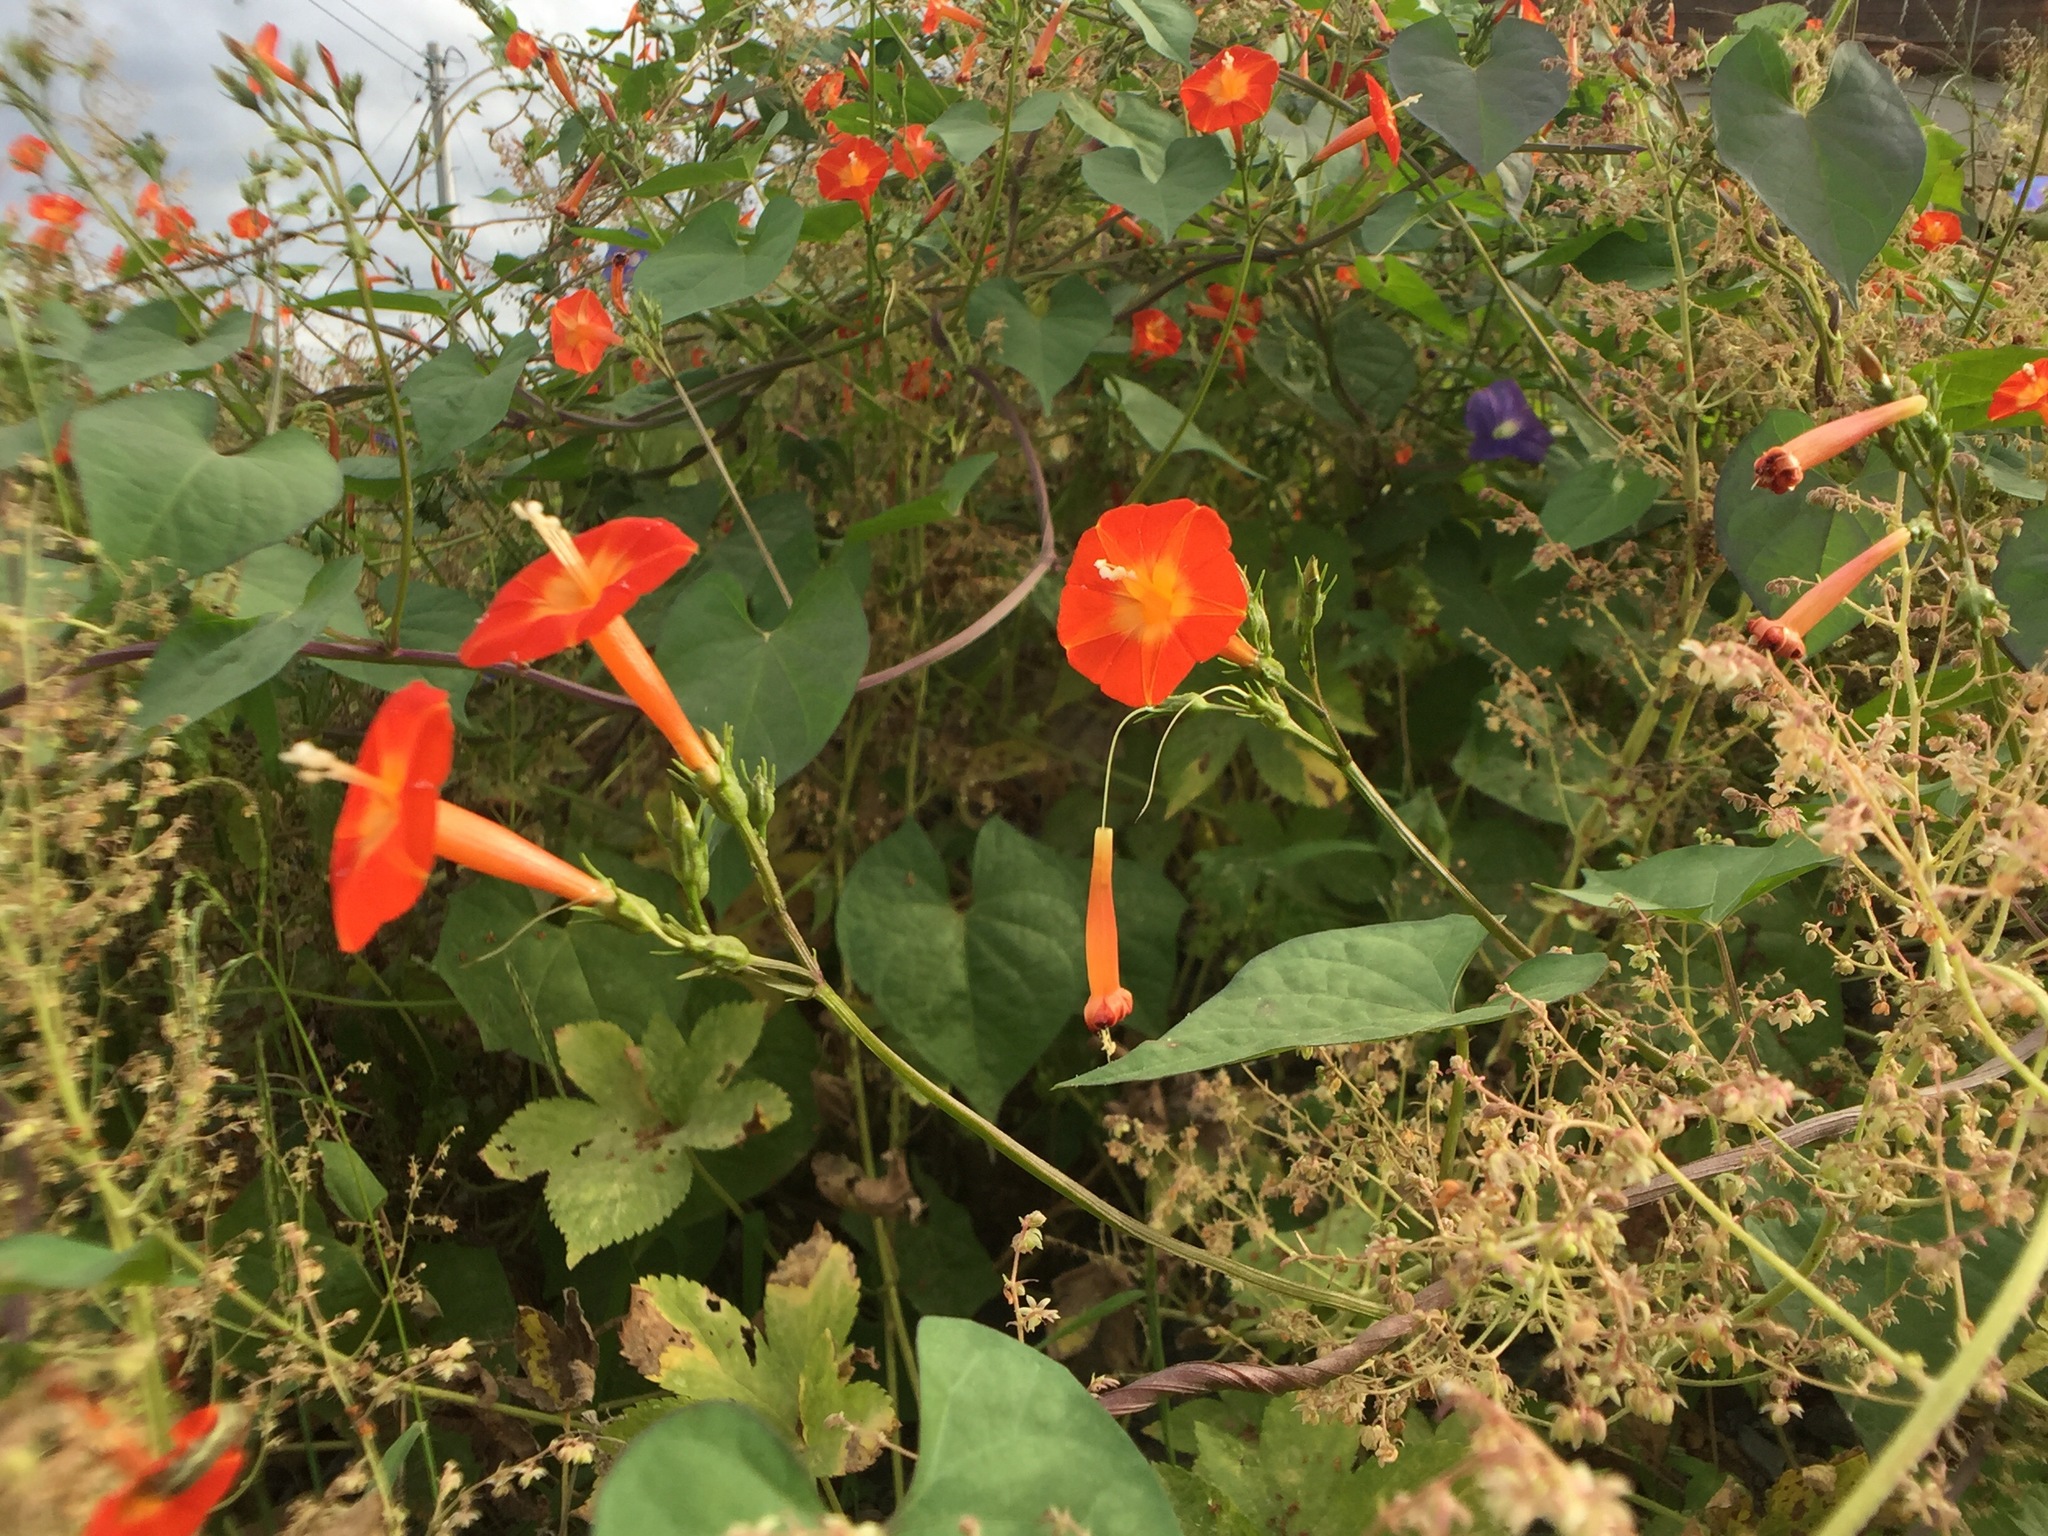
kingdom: Plantae
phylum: Tracheophyta
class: Magnoliopsida
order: Solanales
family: Convolvulaceae
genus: Ipomoea
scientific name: Ipomoea coccinea
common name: Red morning-glory
